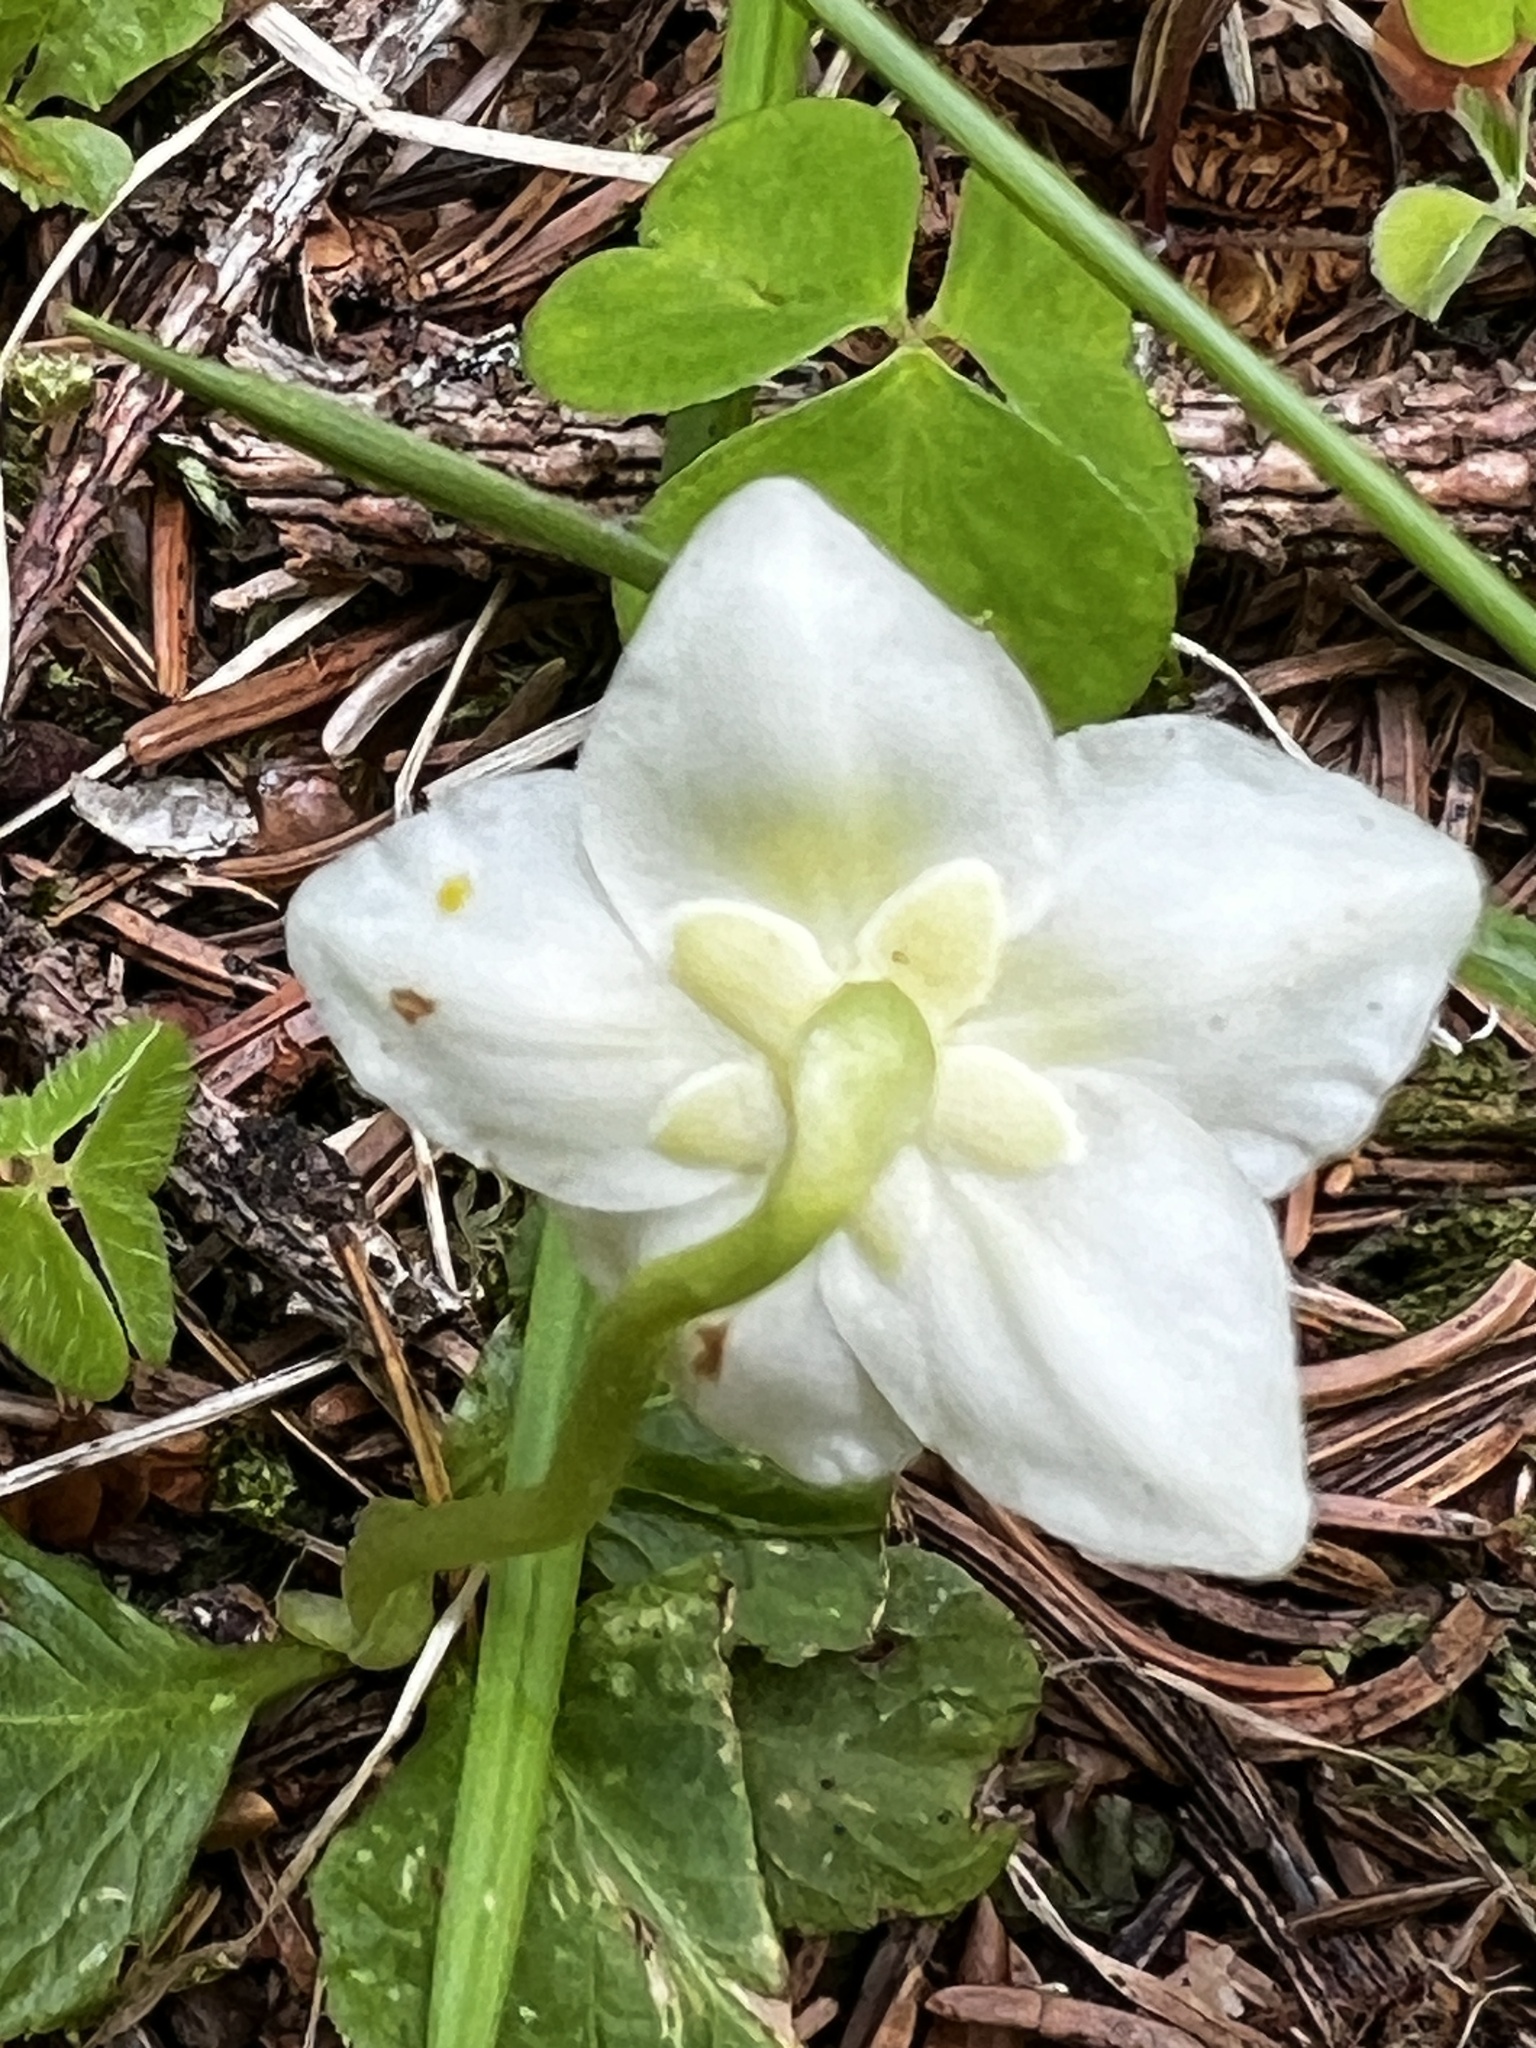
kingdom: Plantae
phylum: Tracheophyta
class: Magnoliopsida
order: Ericales
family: Ericaceae
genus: Moneses
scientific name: Moneses uniflora
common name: One-flowered wintergreen
